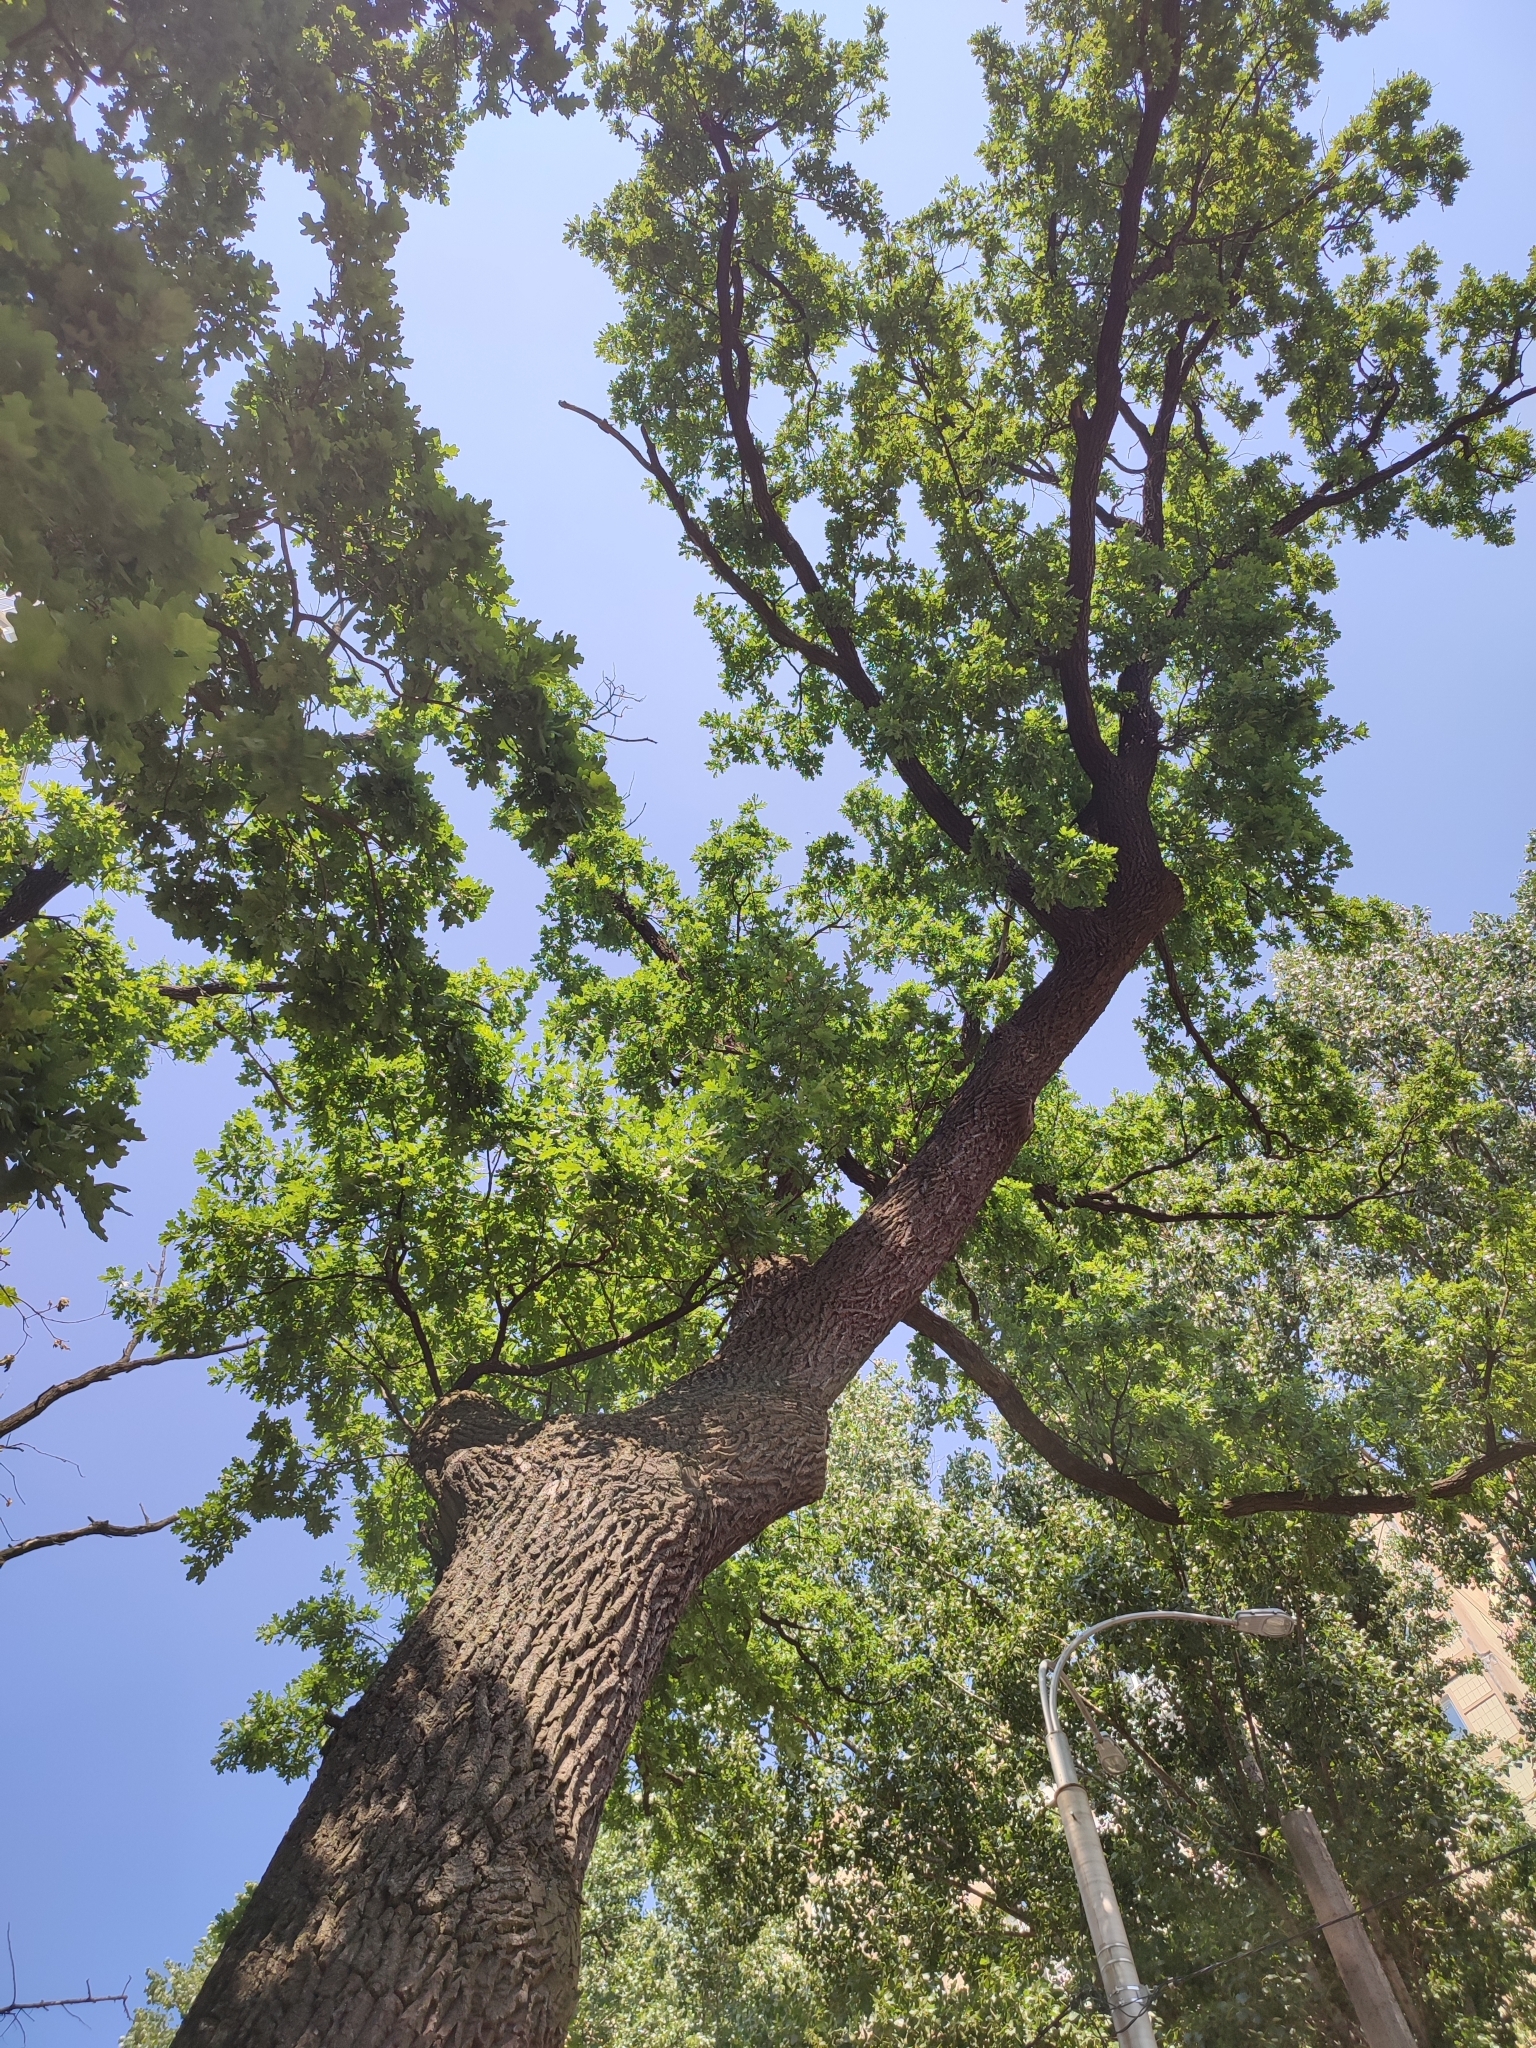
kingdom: Plantae
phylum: Tracheophyta
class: Magnoliopsida
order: Fagales
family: Fagaceae
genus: Quercus
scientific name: Quercus robur
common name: Pedunculate oak
